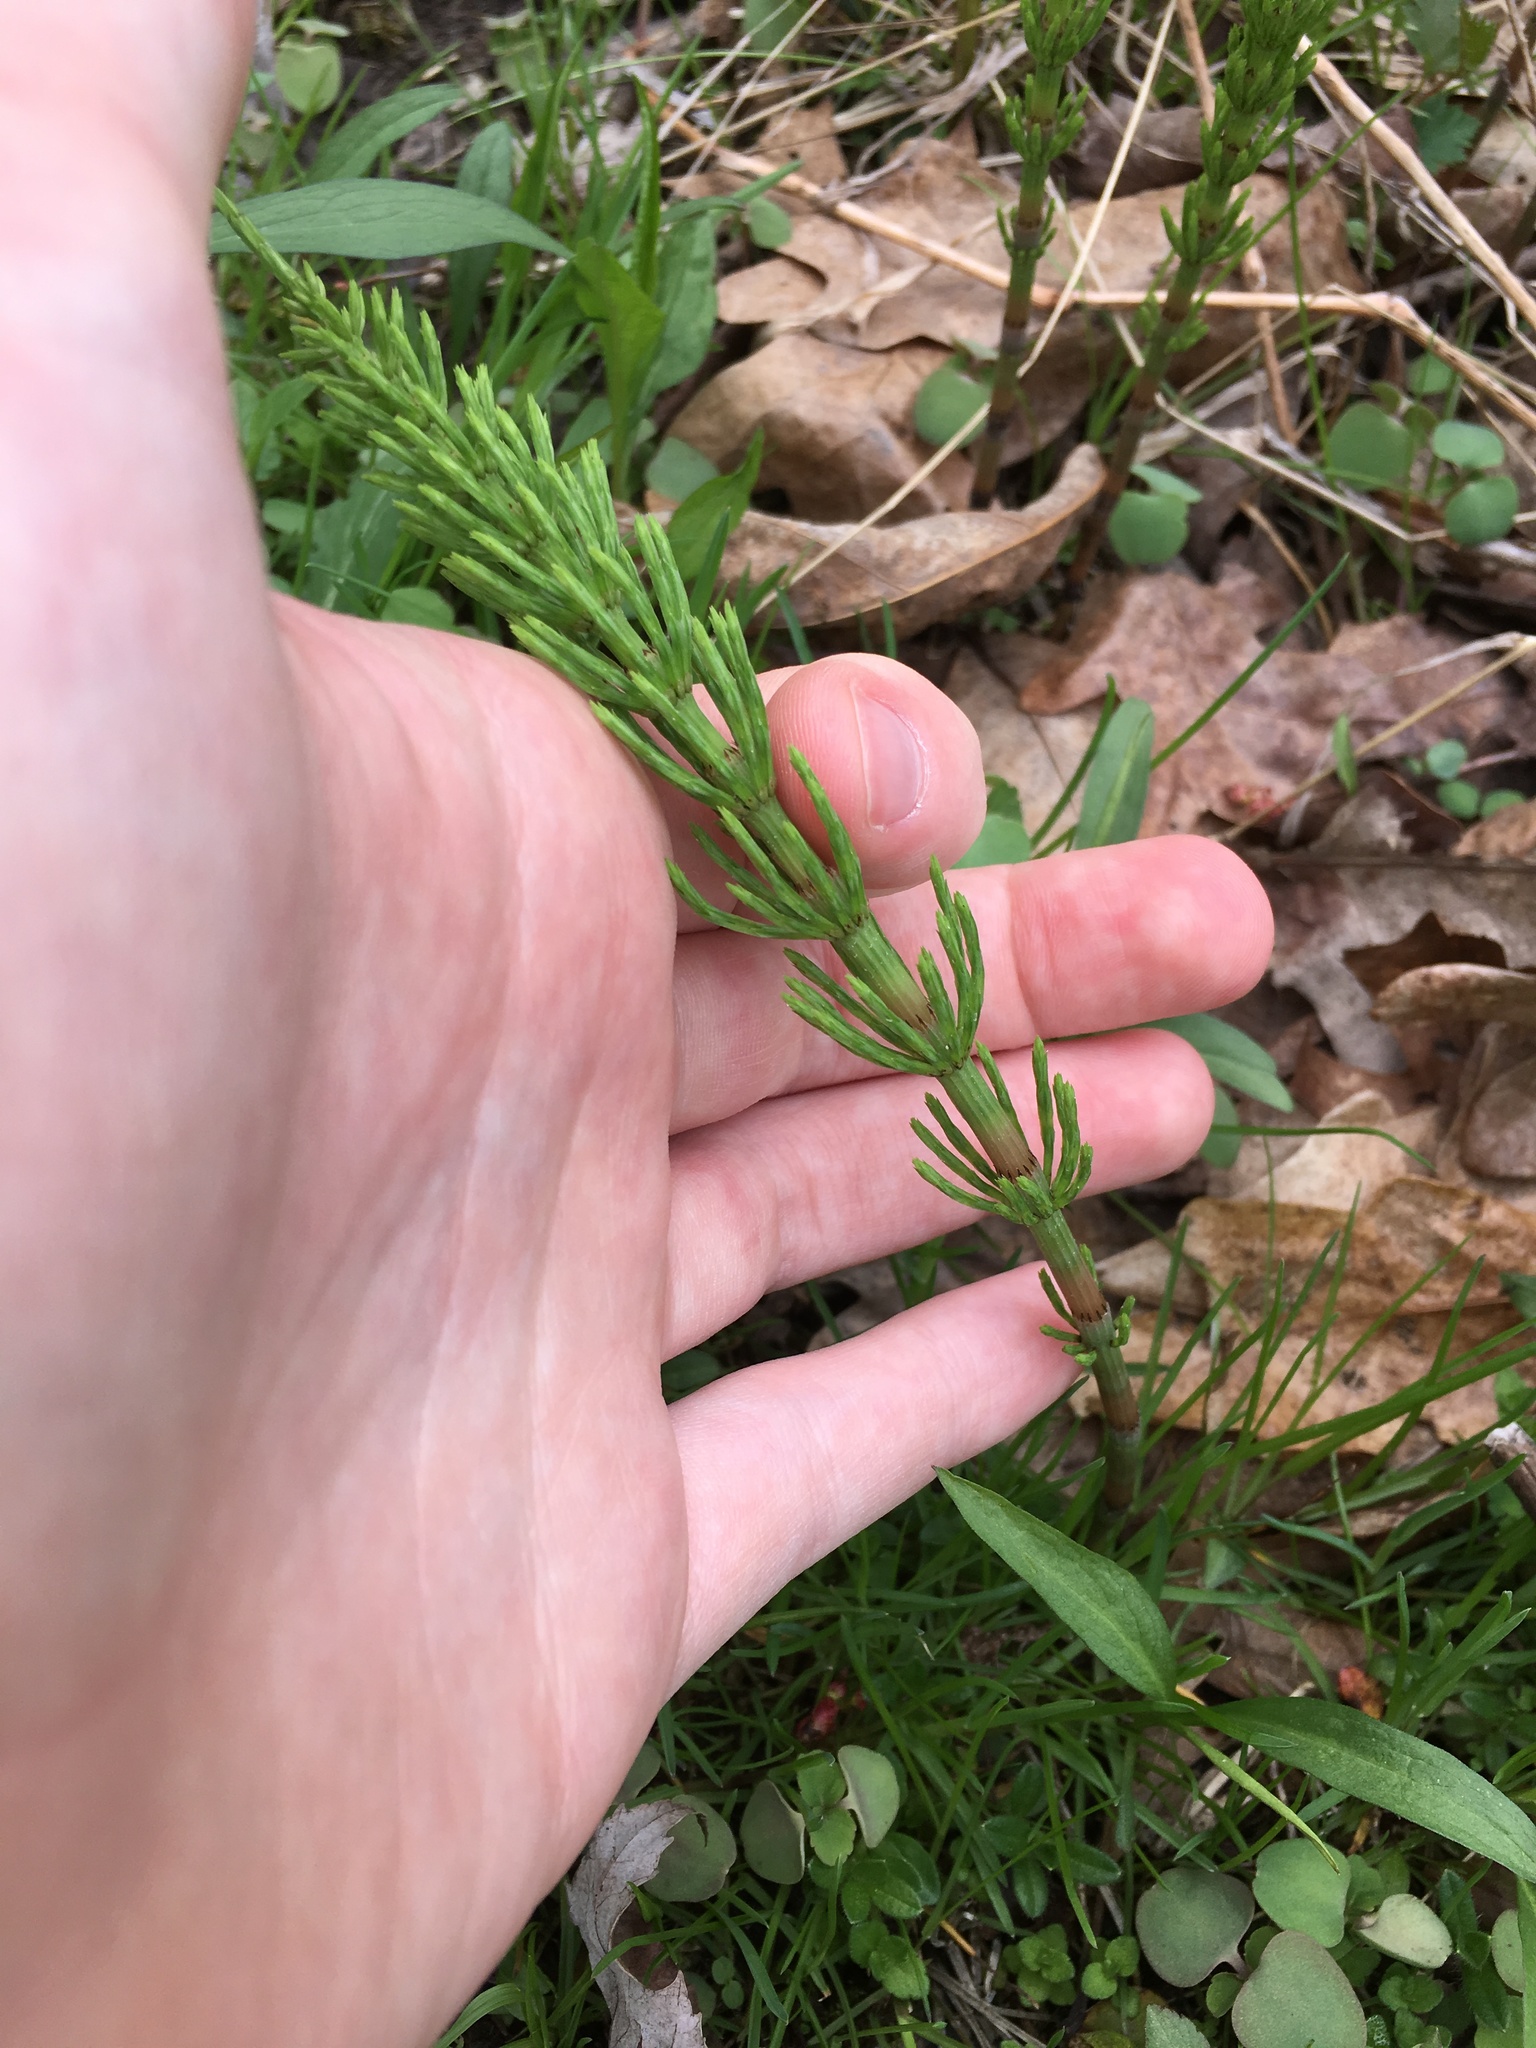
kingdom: Plantae
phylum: Tracheophyta
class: Polypodiopsida
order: Equisetales
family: Equisetaceae
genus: Equisetum
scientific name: Equisetum arvense
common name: Field horsetail
